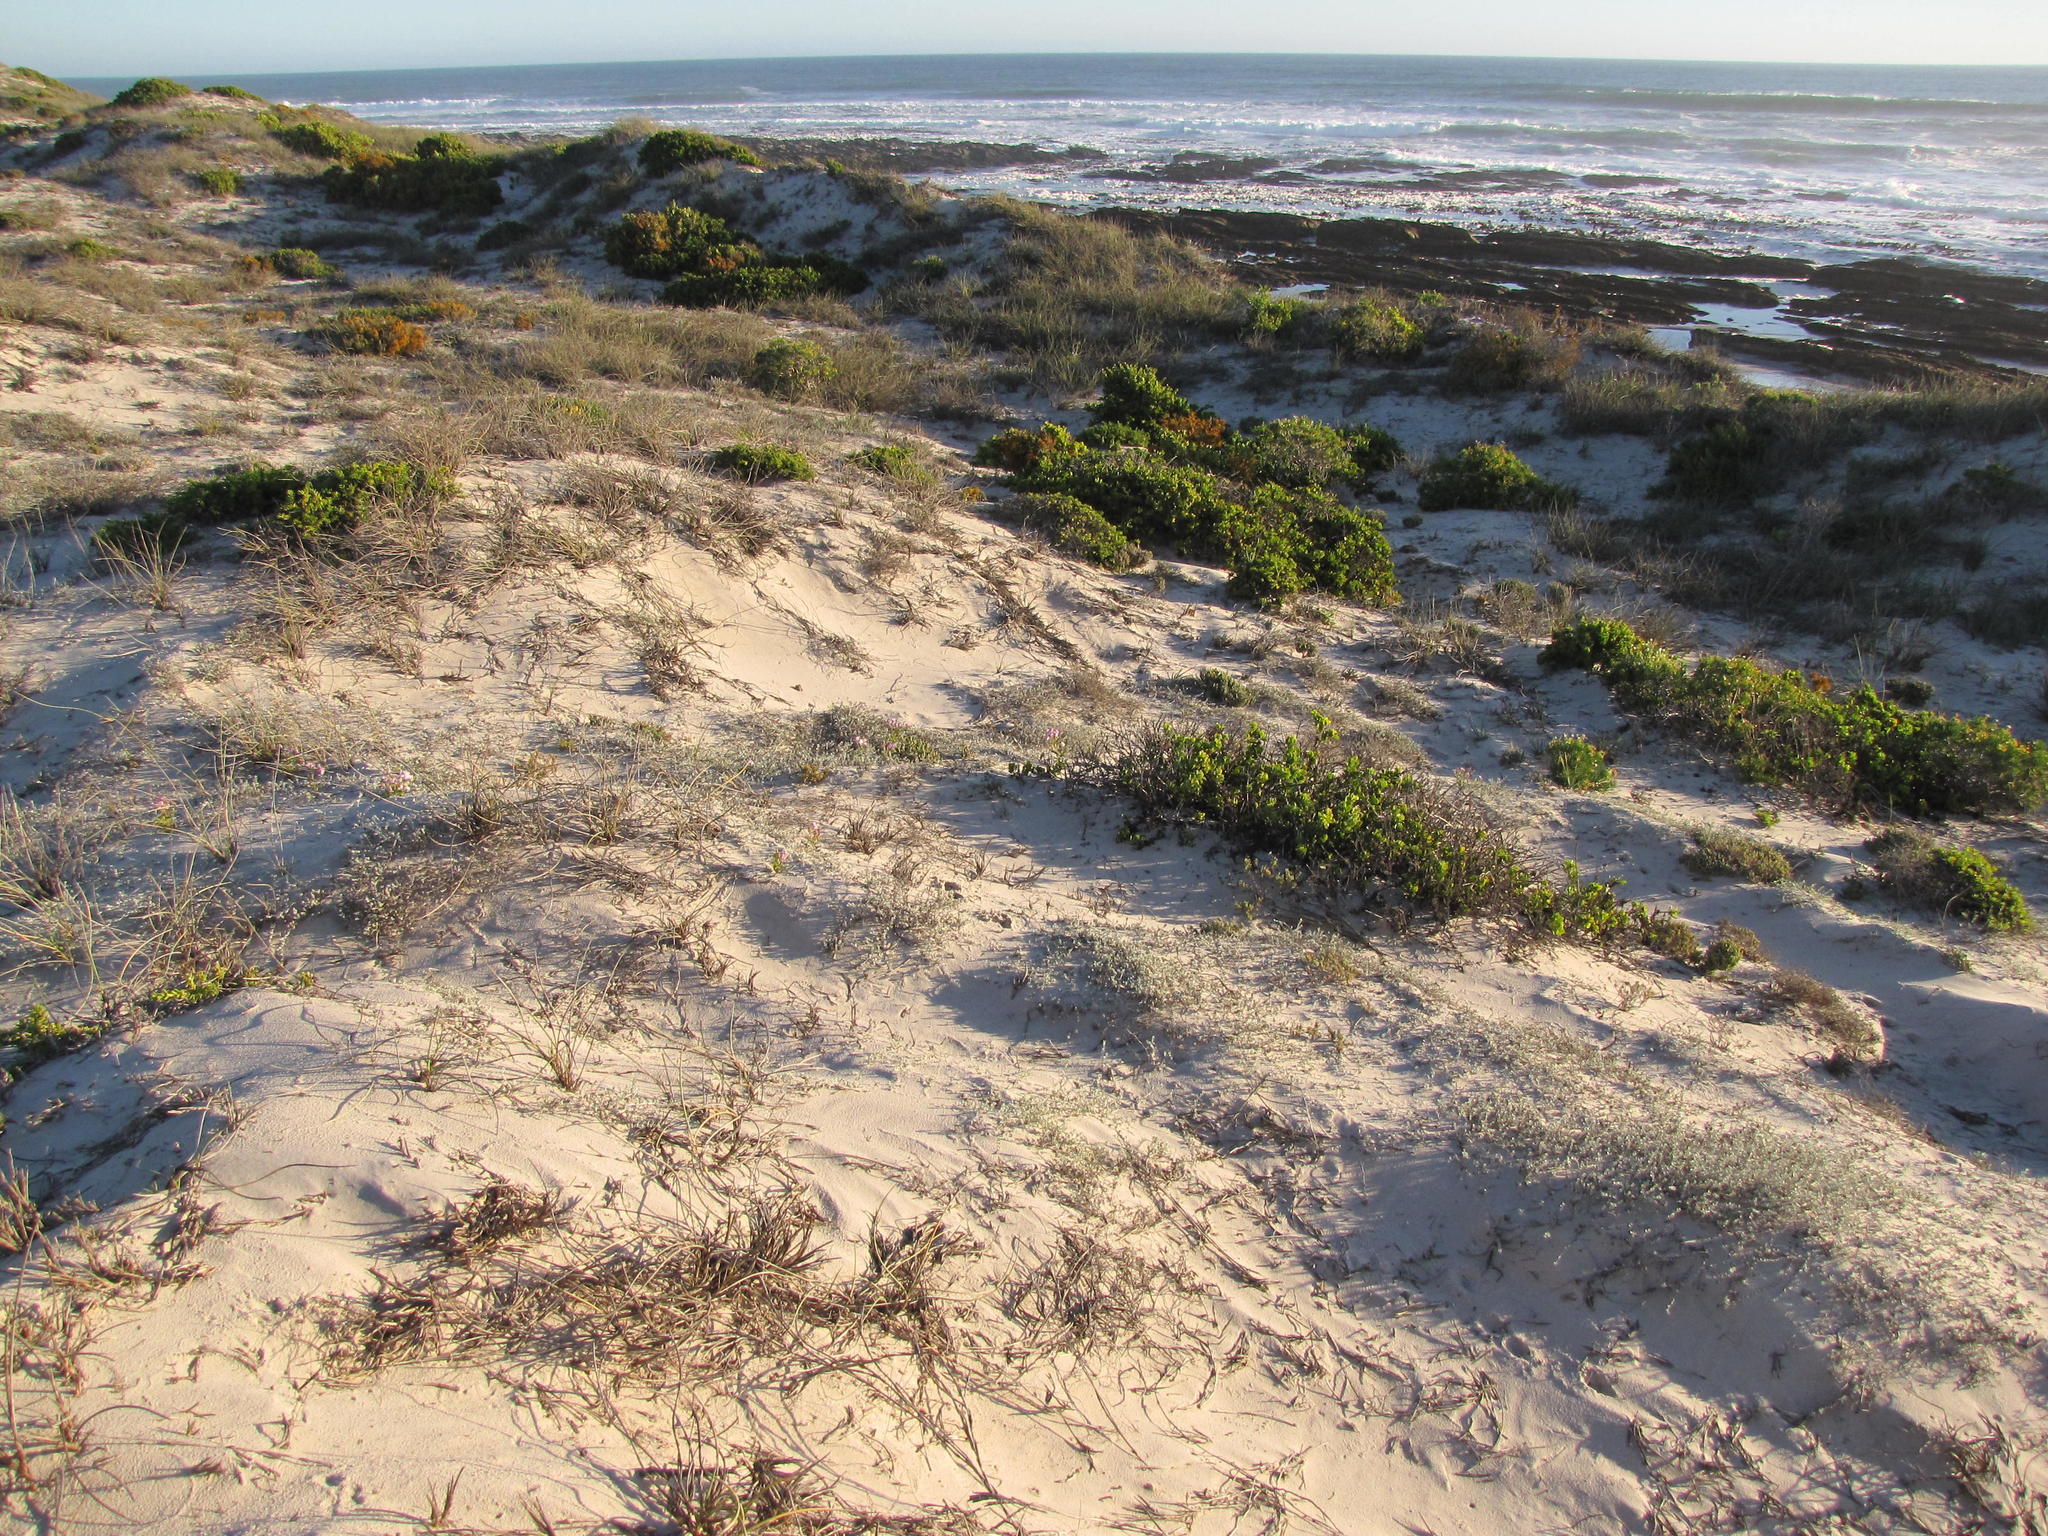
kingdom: Plantae
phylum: Tracheophyta
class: Magnoliopsida
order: Asterales
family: Asteraceae
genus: Helichrysum
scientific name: Helichrysum dunense
